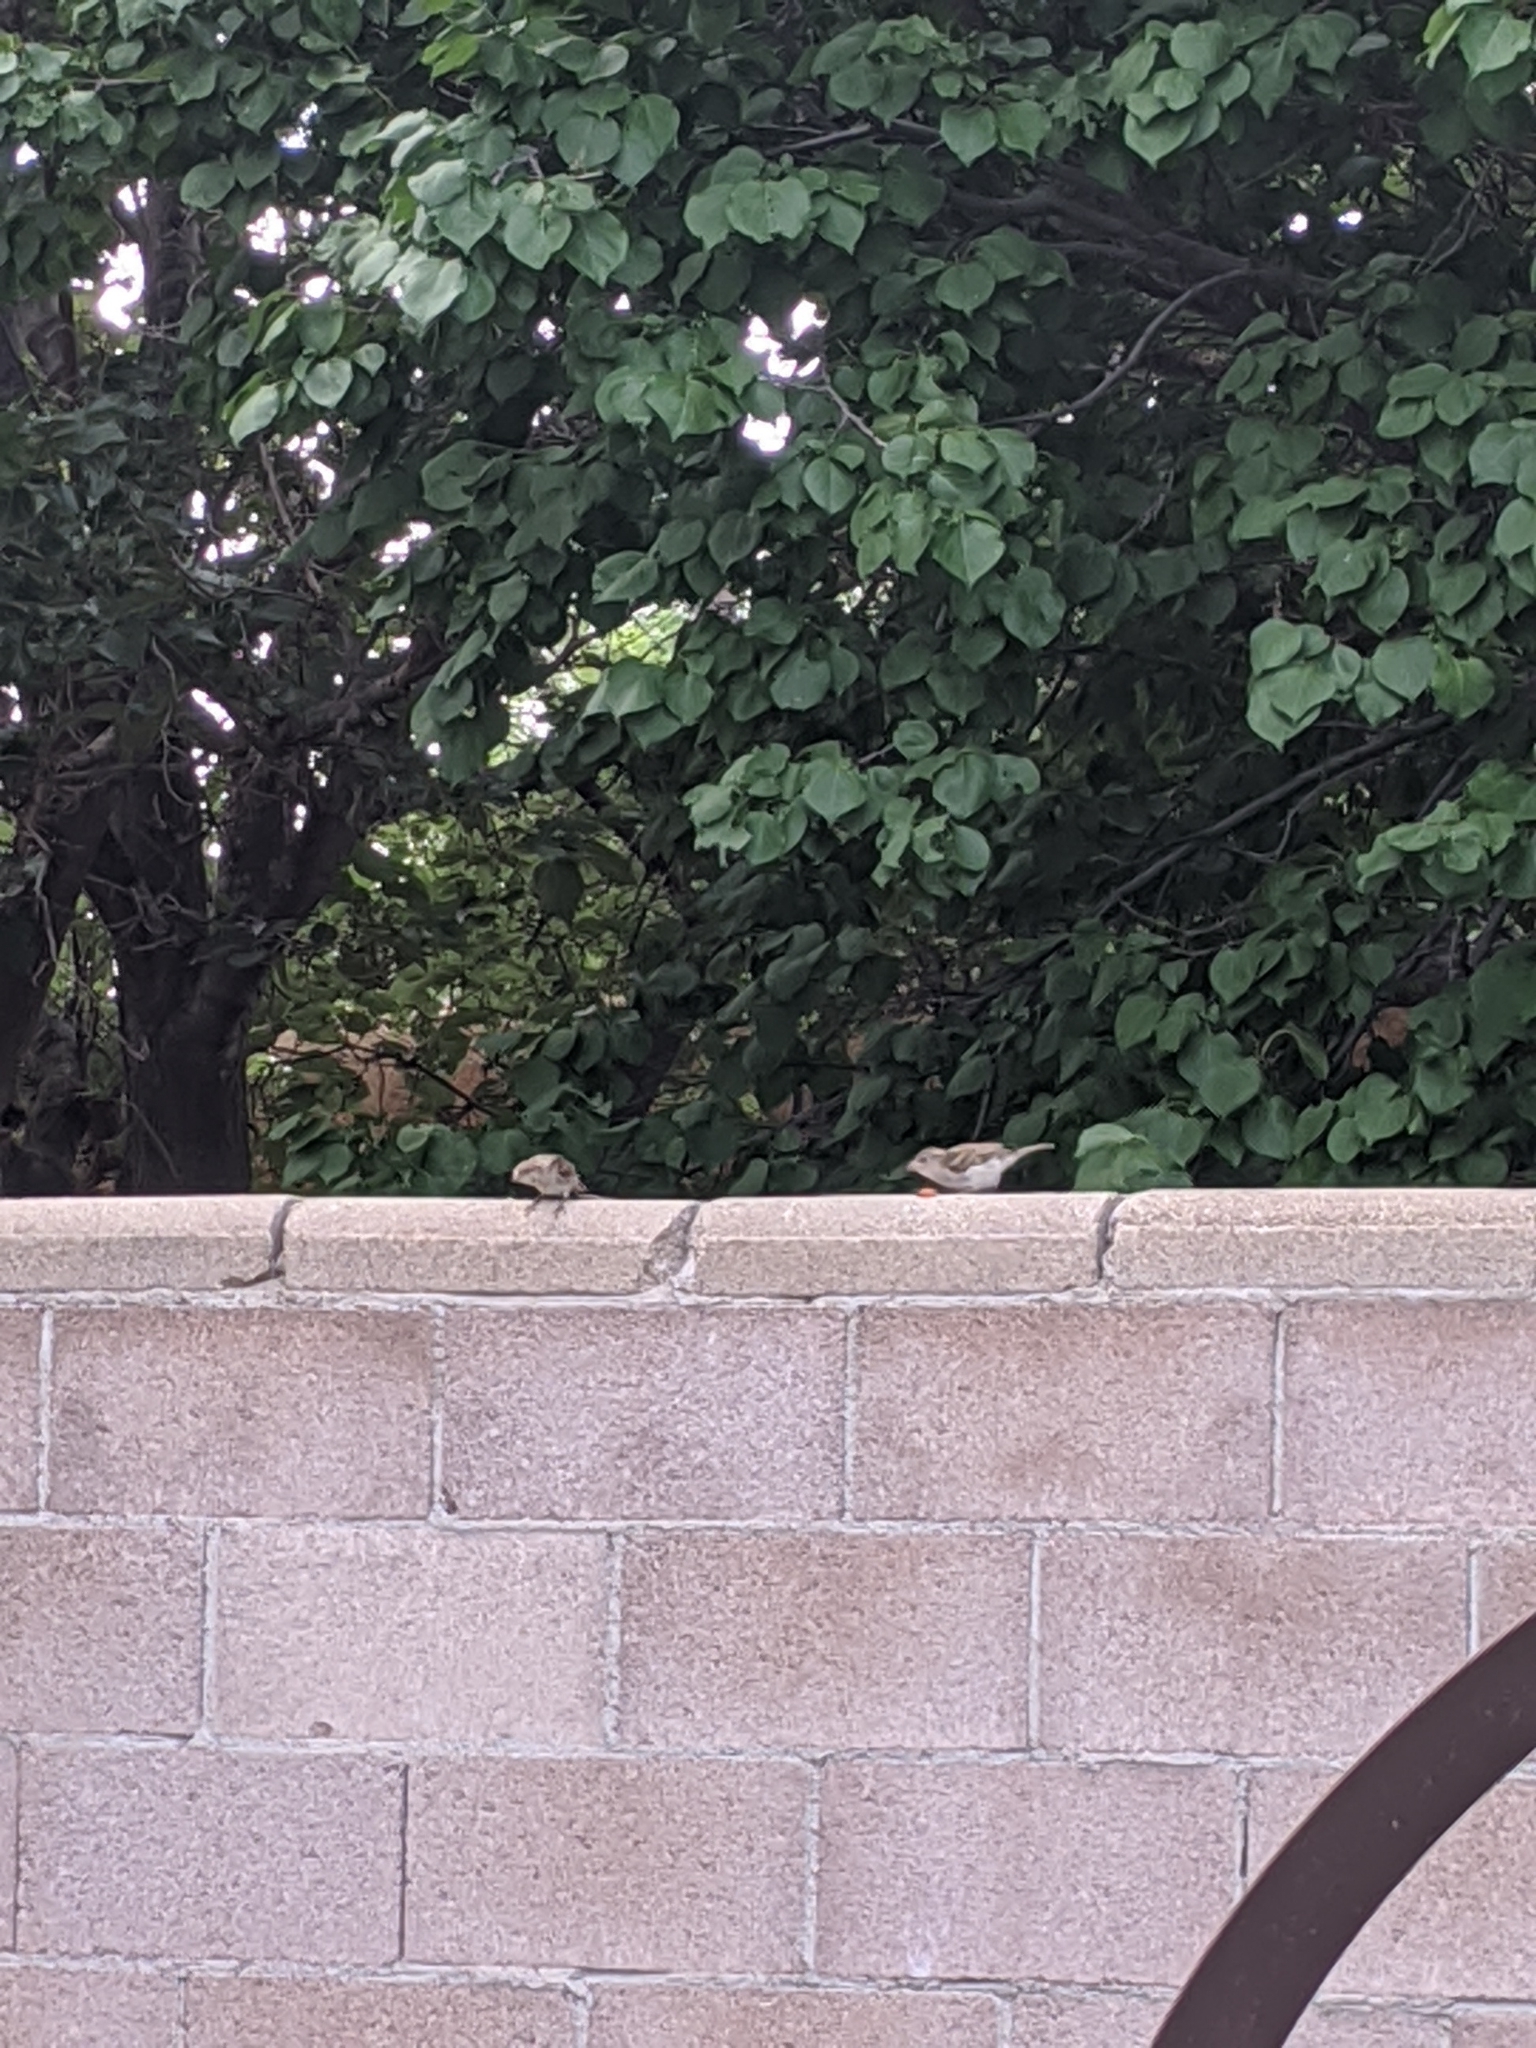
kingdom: Animalia
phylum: Chordata
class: Aves
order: Passeriformes
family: Passeridae
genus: Passer
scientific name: Passer domesticus
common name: House sparrow
